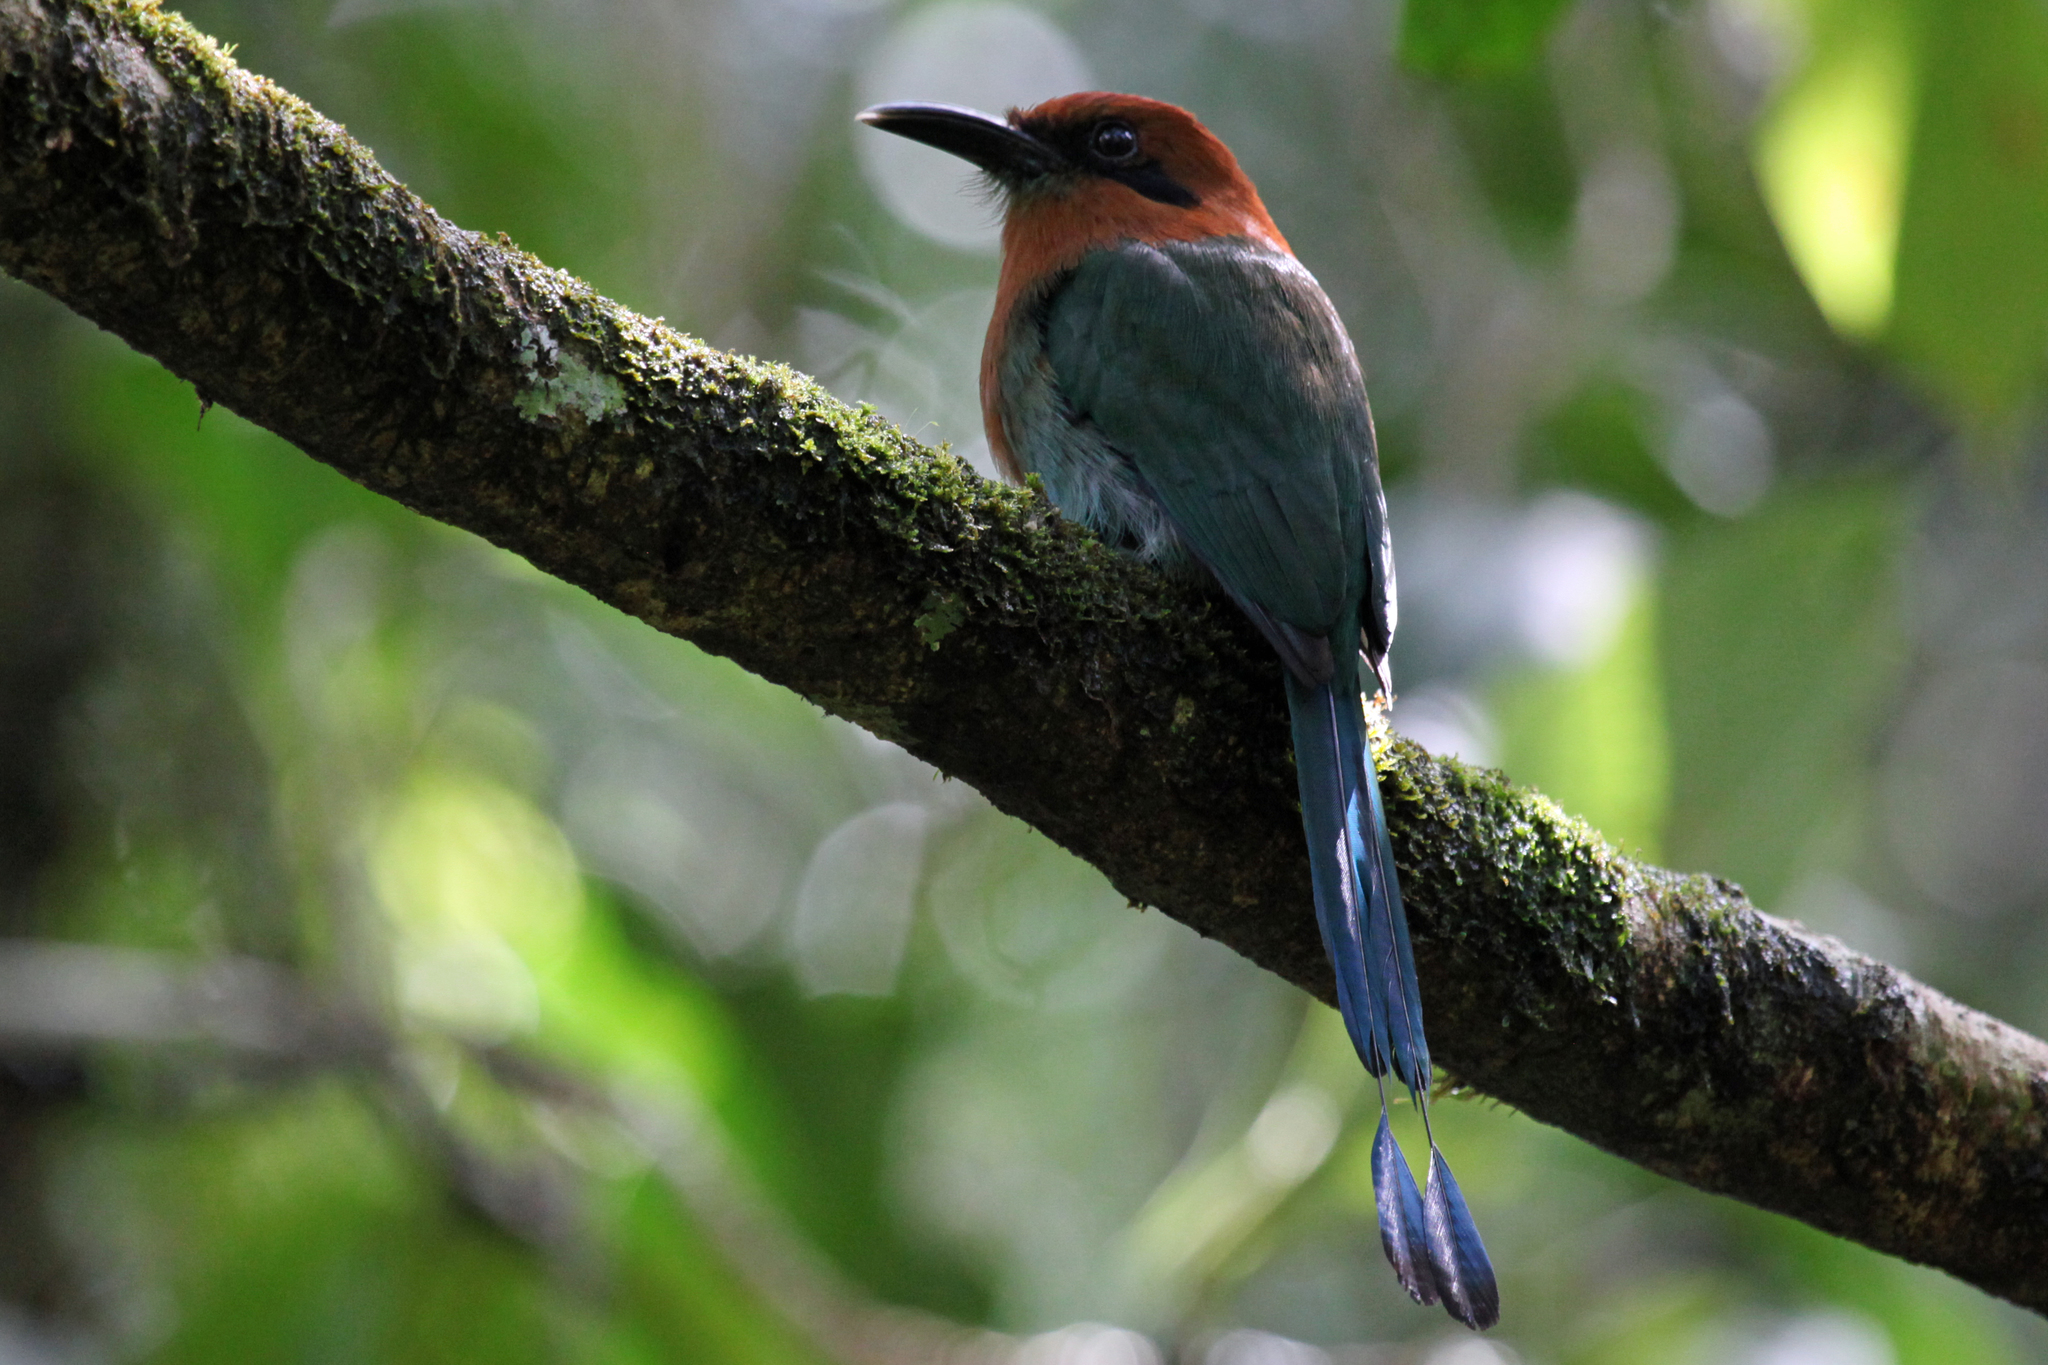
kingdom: Animalia
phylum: Chordata
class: Aves
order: Coraciiformes
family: Momotidae
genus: Electron
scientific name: Electron platyrhynchum
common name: Broad-billed motmot
